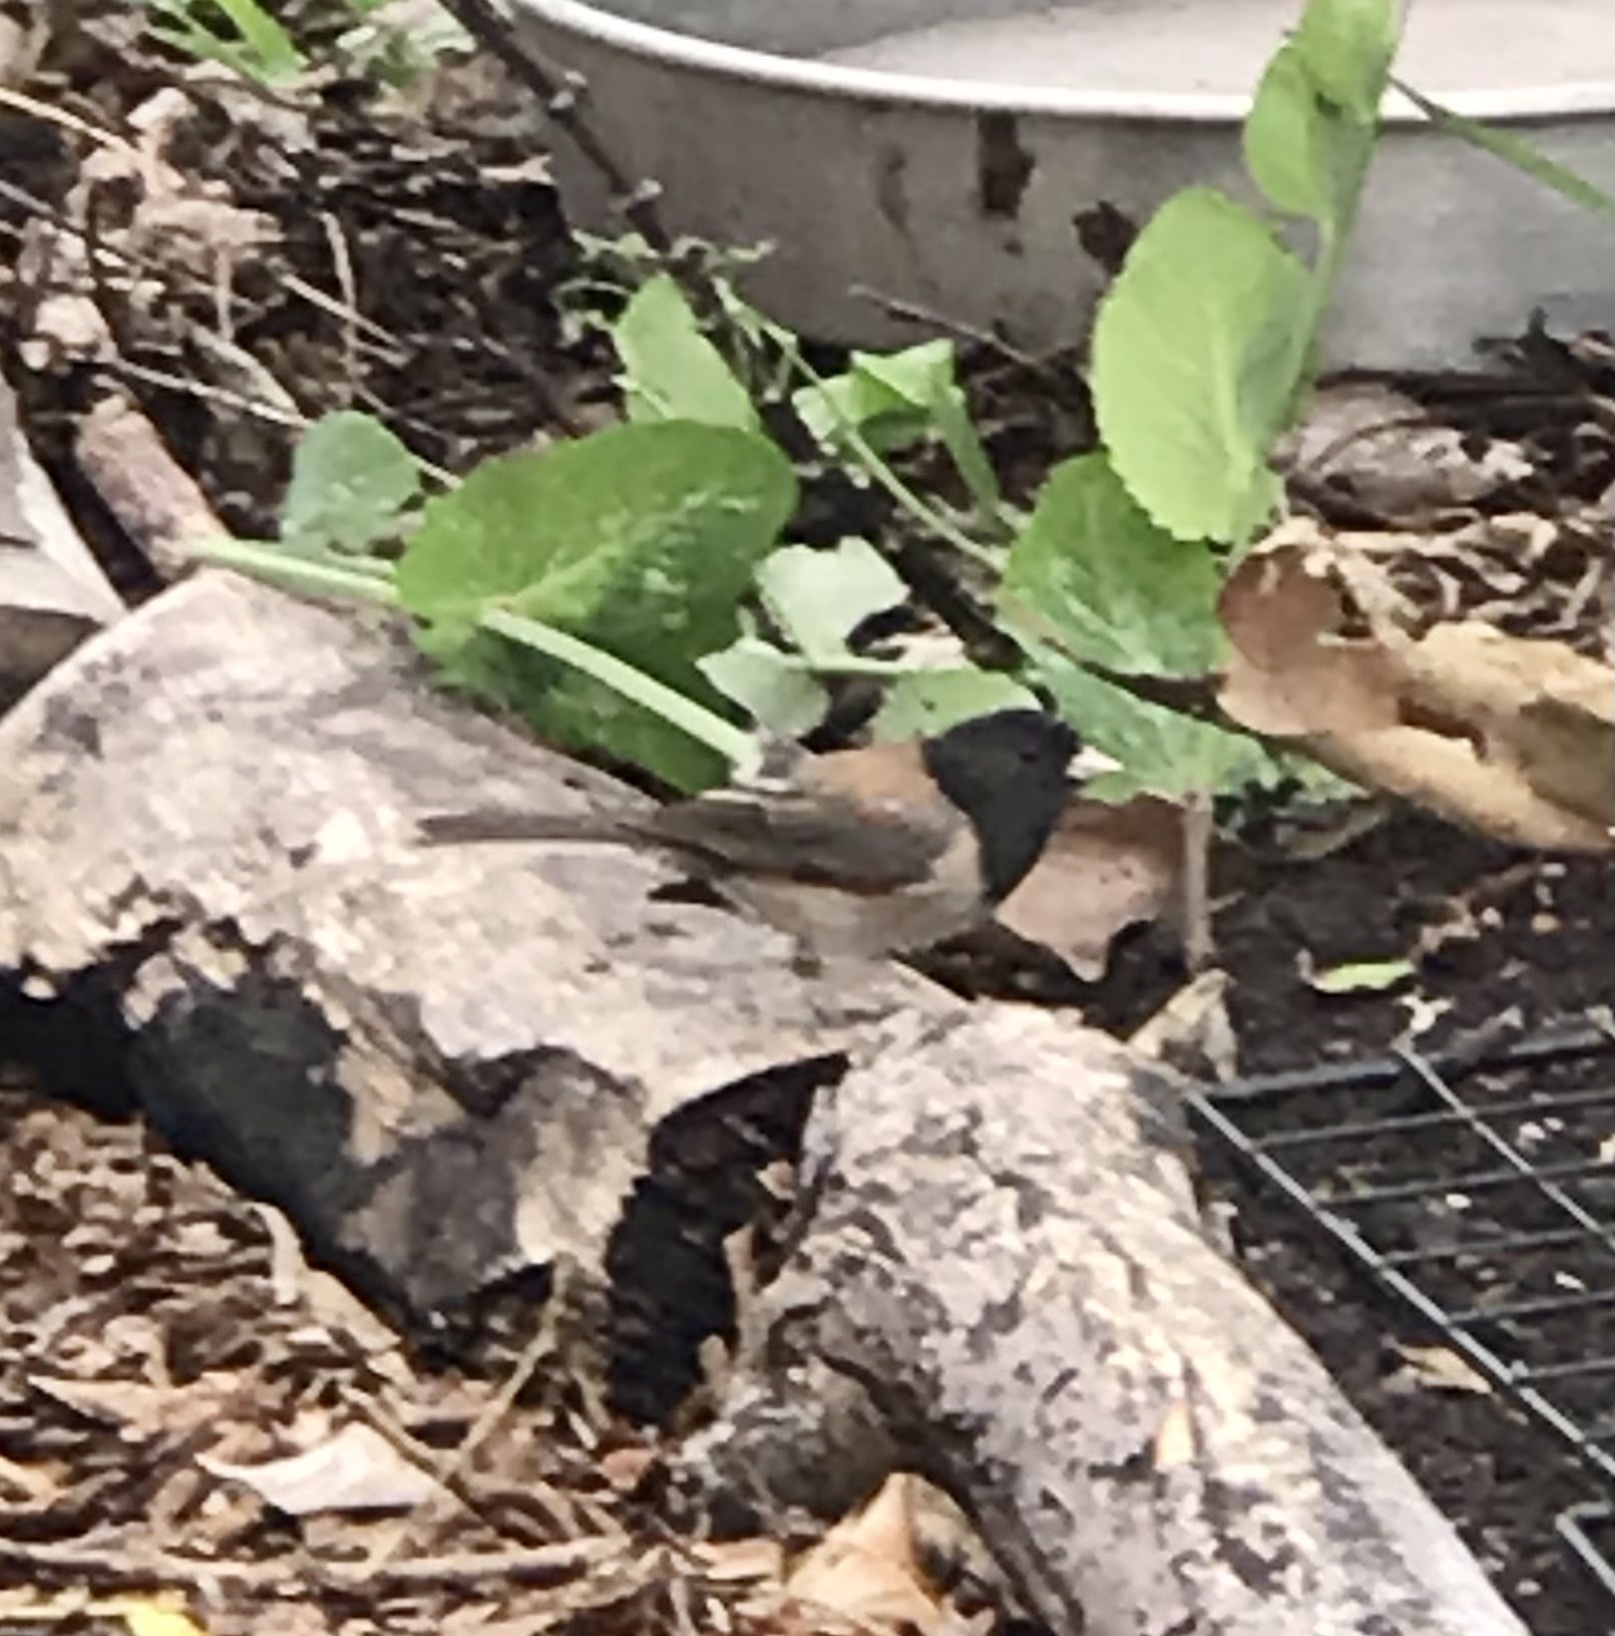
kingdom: Animalia
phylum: Chordata
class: Aves
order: Passeriformes
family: Passerellidae
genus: Junco
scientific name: Junco hyemalis
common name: Dark-eyed junco
